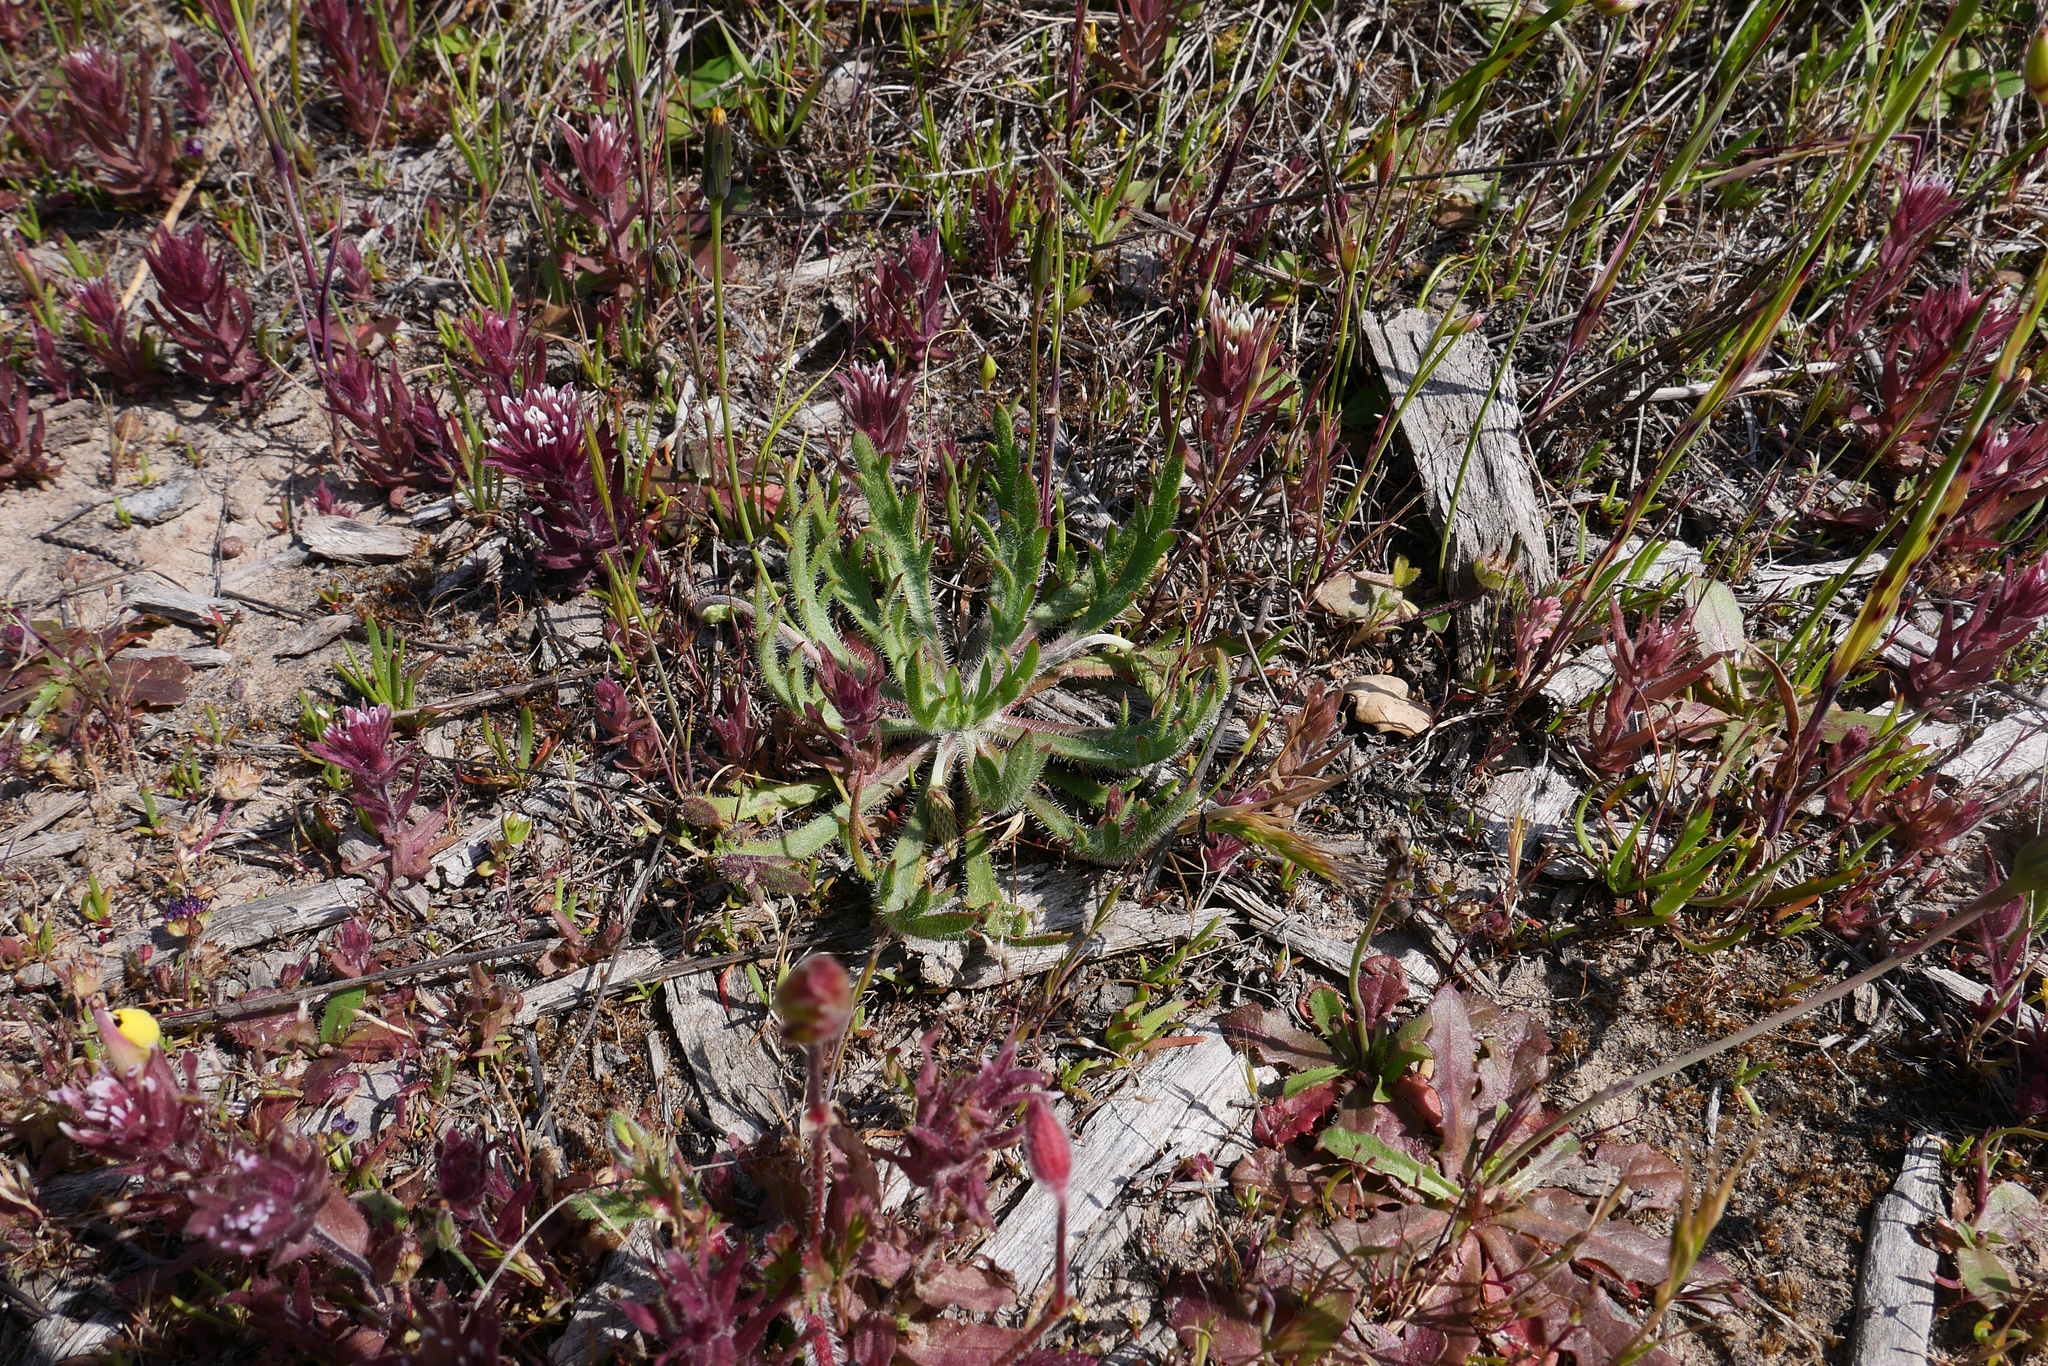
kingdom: Plantae
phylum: Tracheophyta
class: Magnoliopsida
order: Lamiales
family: Plantaginaceae
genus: Plantago
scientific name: Plantago coronopus
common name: Buck's-horn plantain
